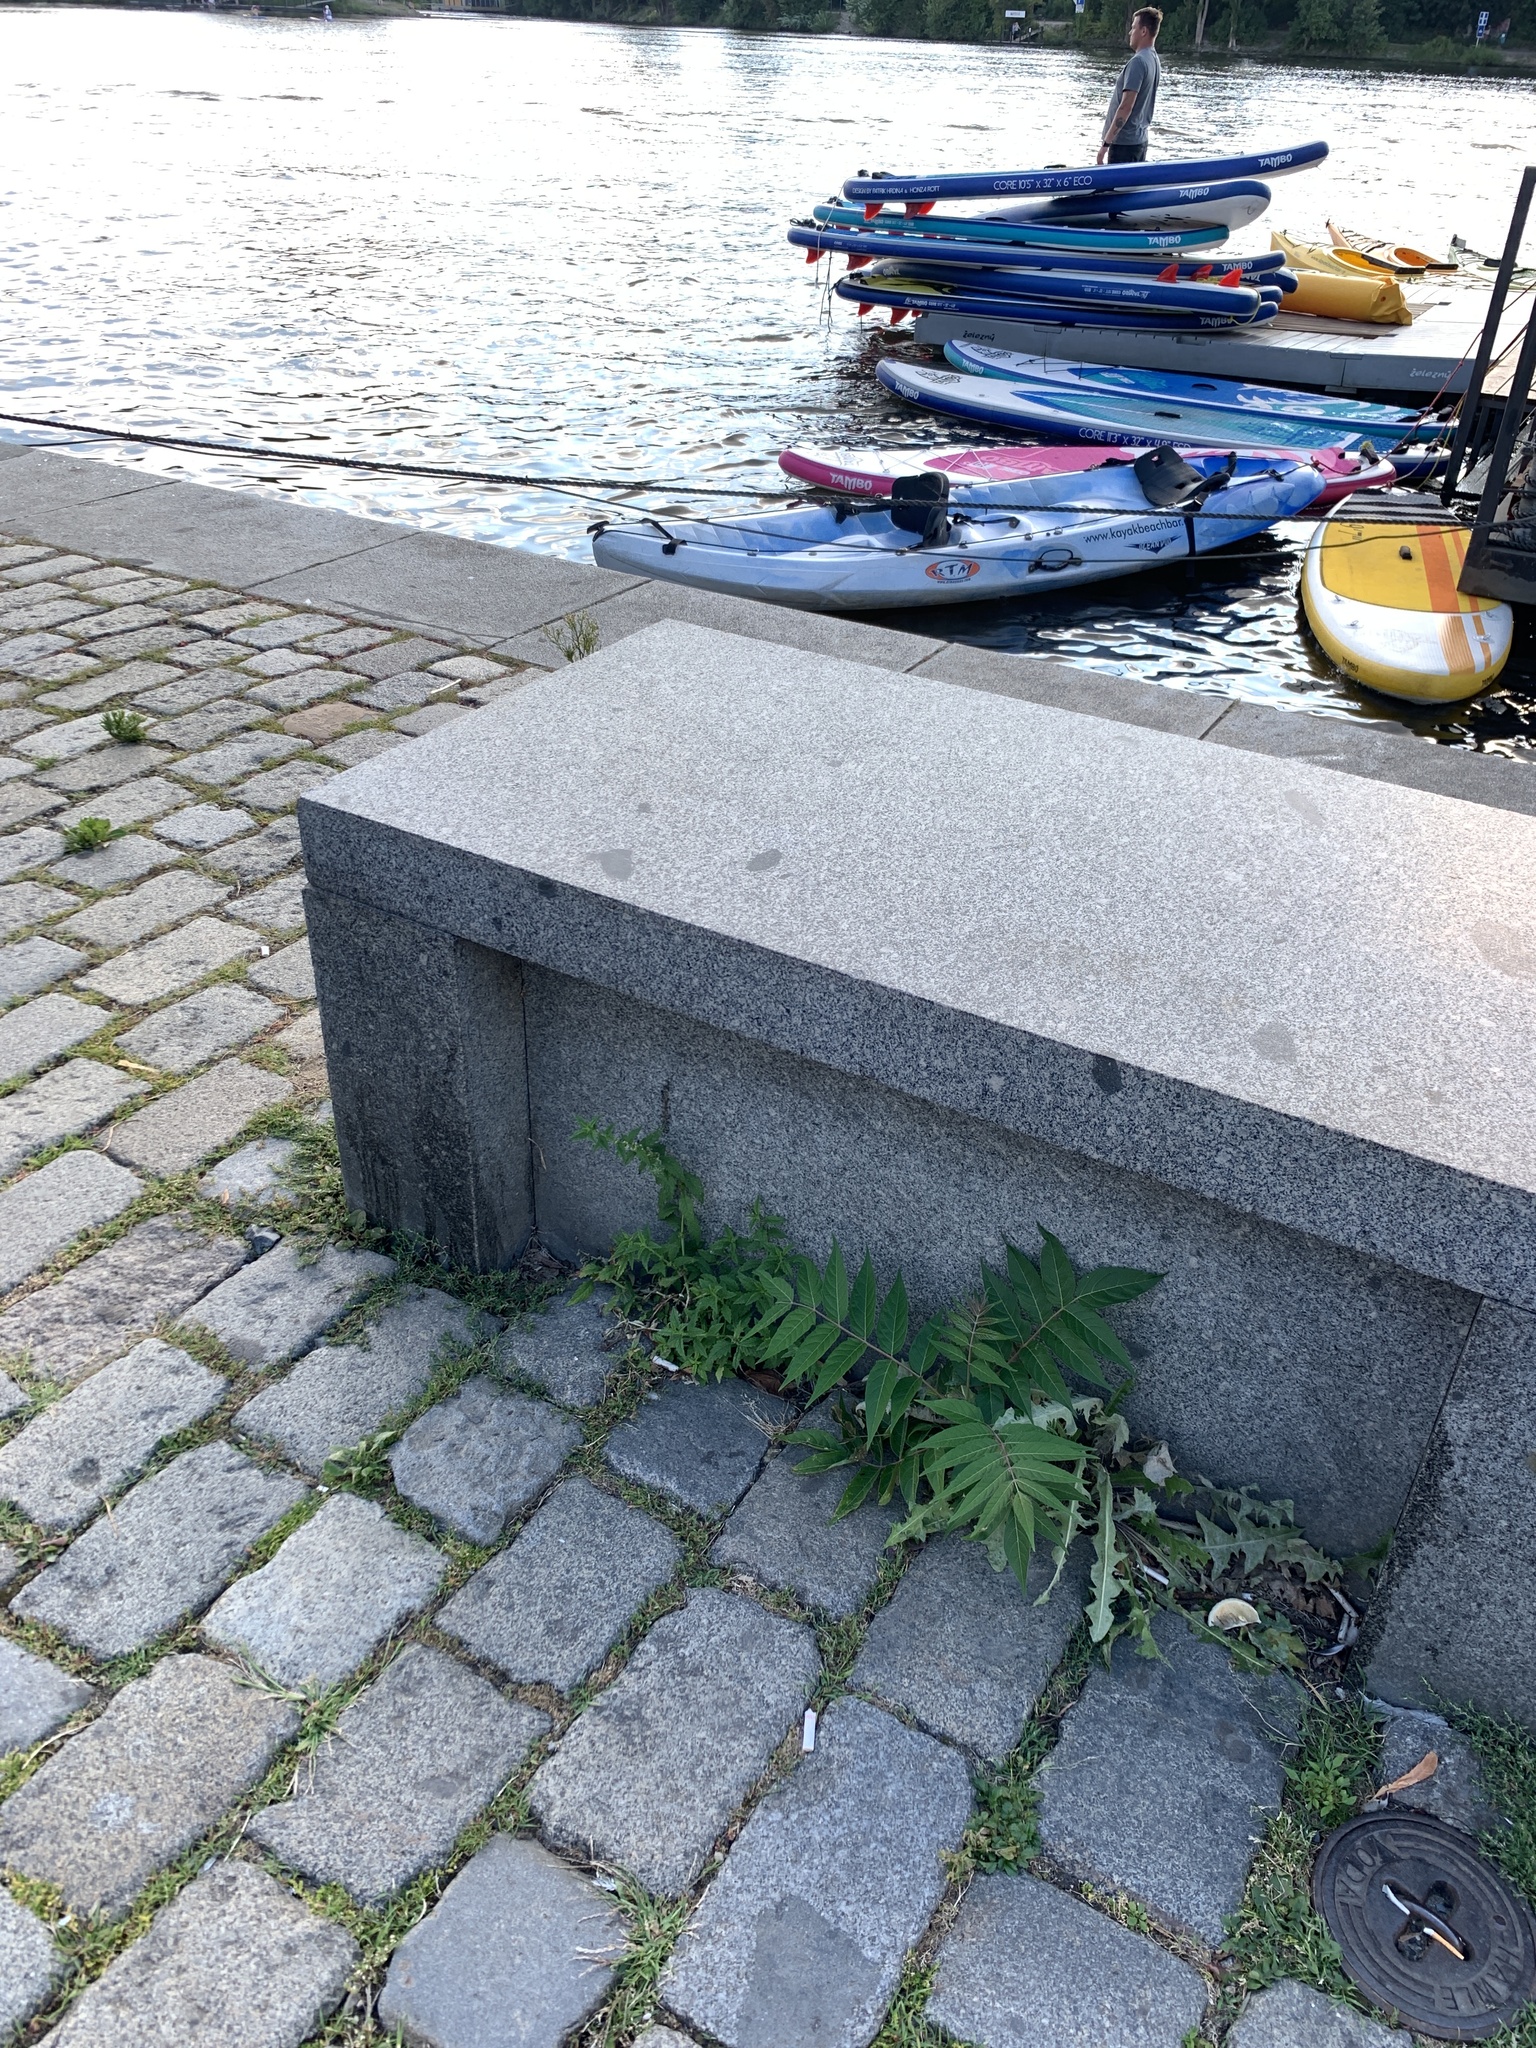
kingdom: Plantae
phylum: Tracheophyta
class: Magnoliopsida
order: Sapindales
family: Simaroubaceae
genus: Ailanthus
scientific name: Ailanthus altissima
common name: Tree-of-heaven
